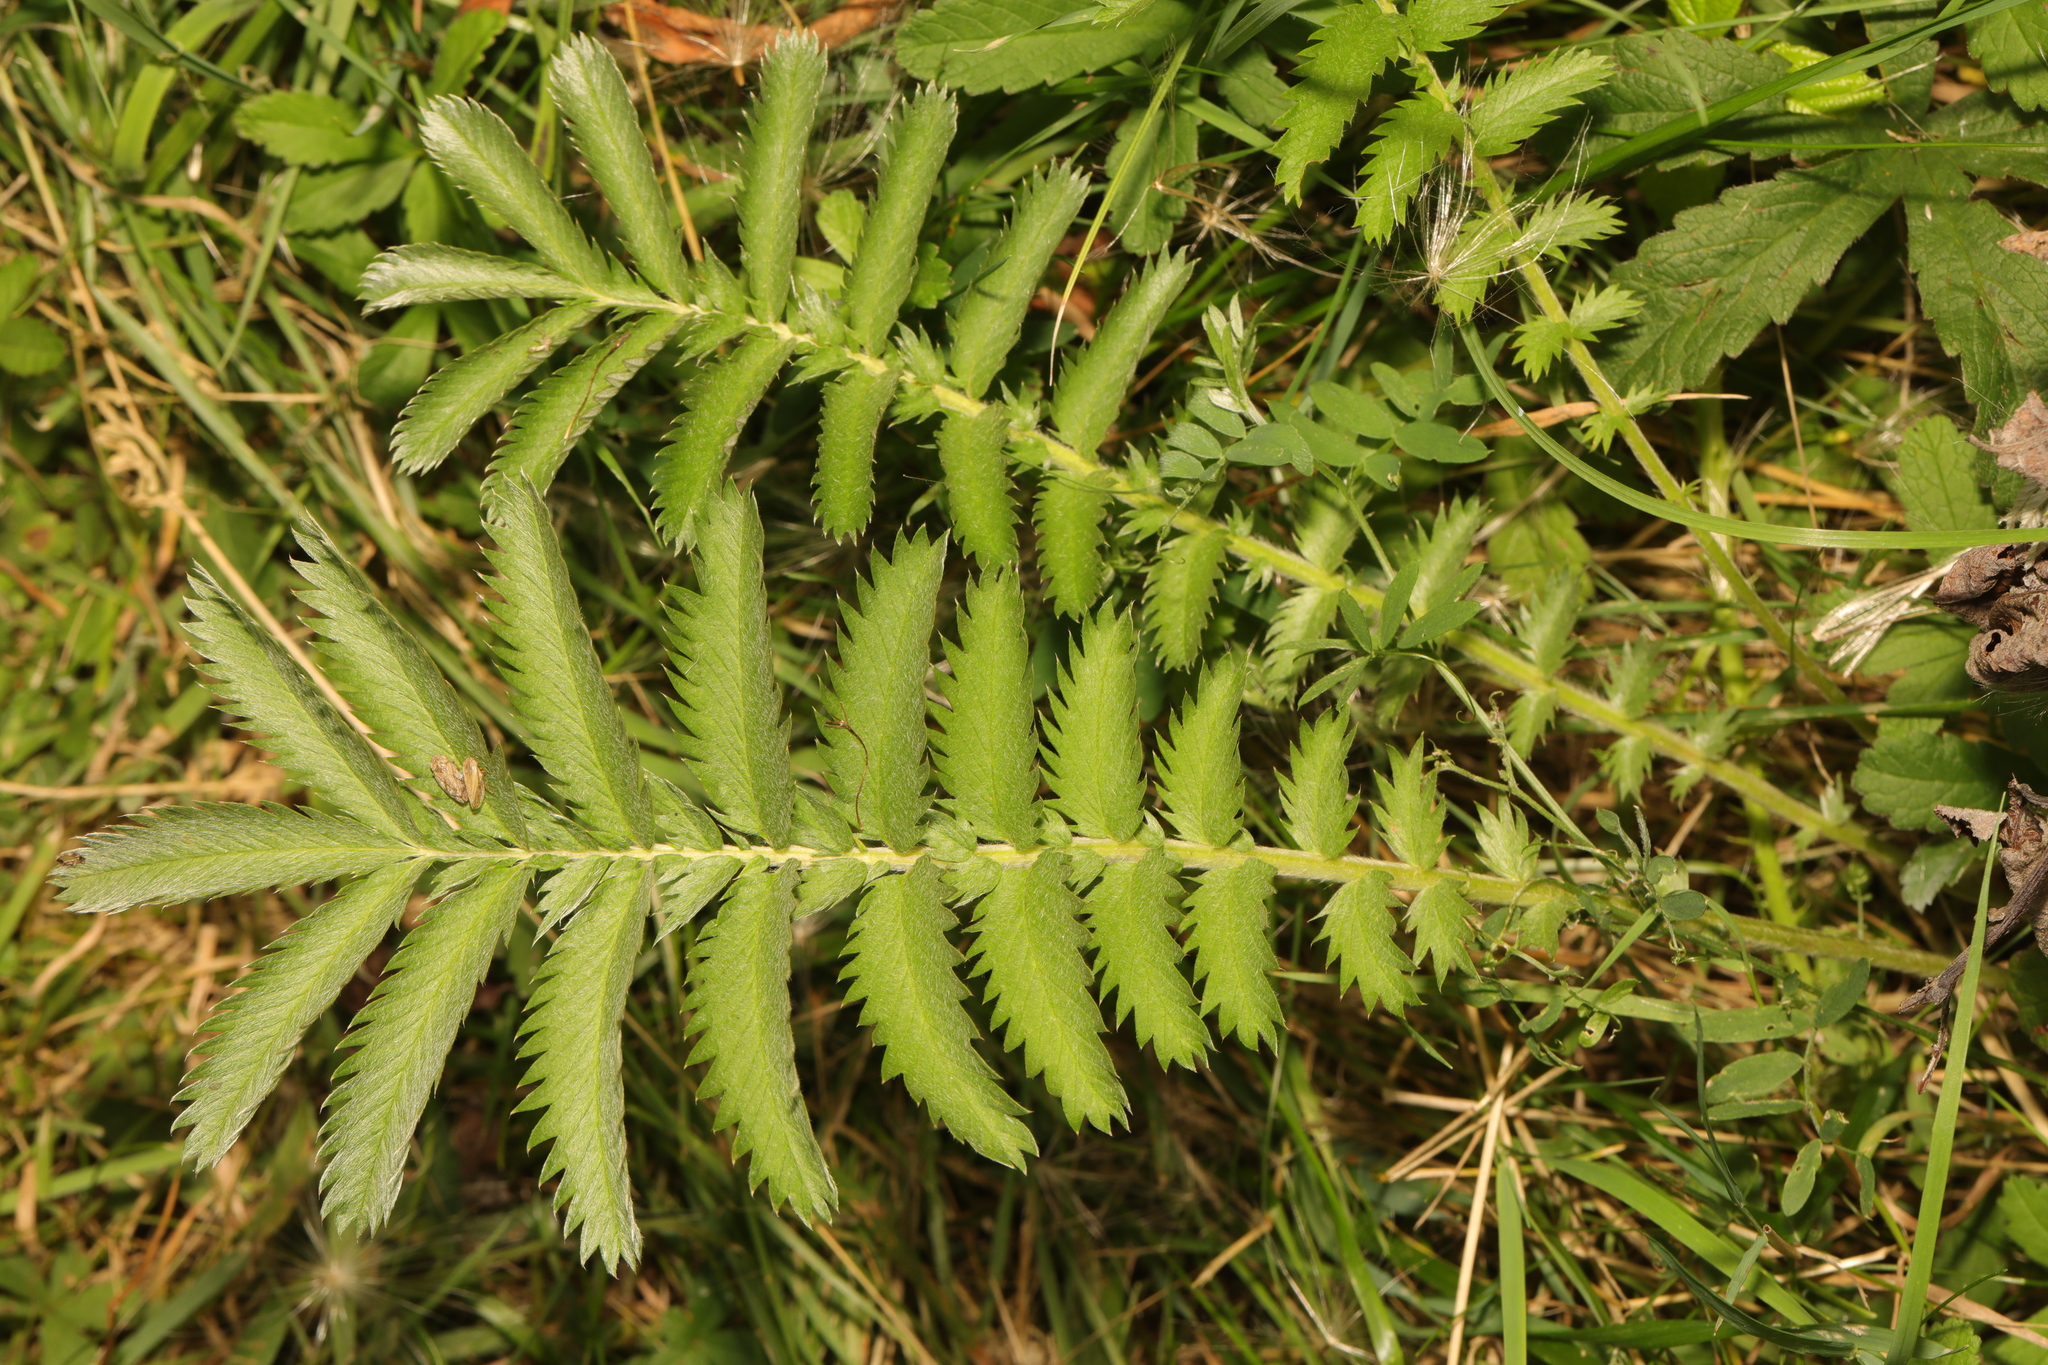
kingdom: Plantae
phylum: Tracheophyta
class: Magnoliopsida
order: Asterales
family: Asteraceae
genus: Tanacetum
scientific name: Tanacetum vulgare
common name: Common tansy
